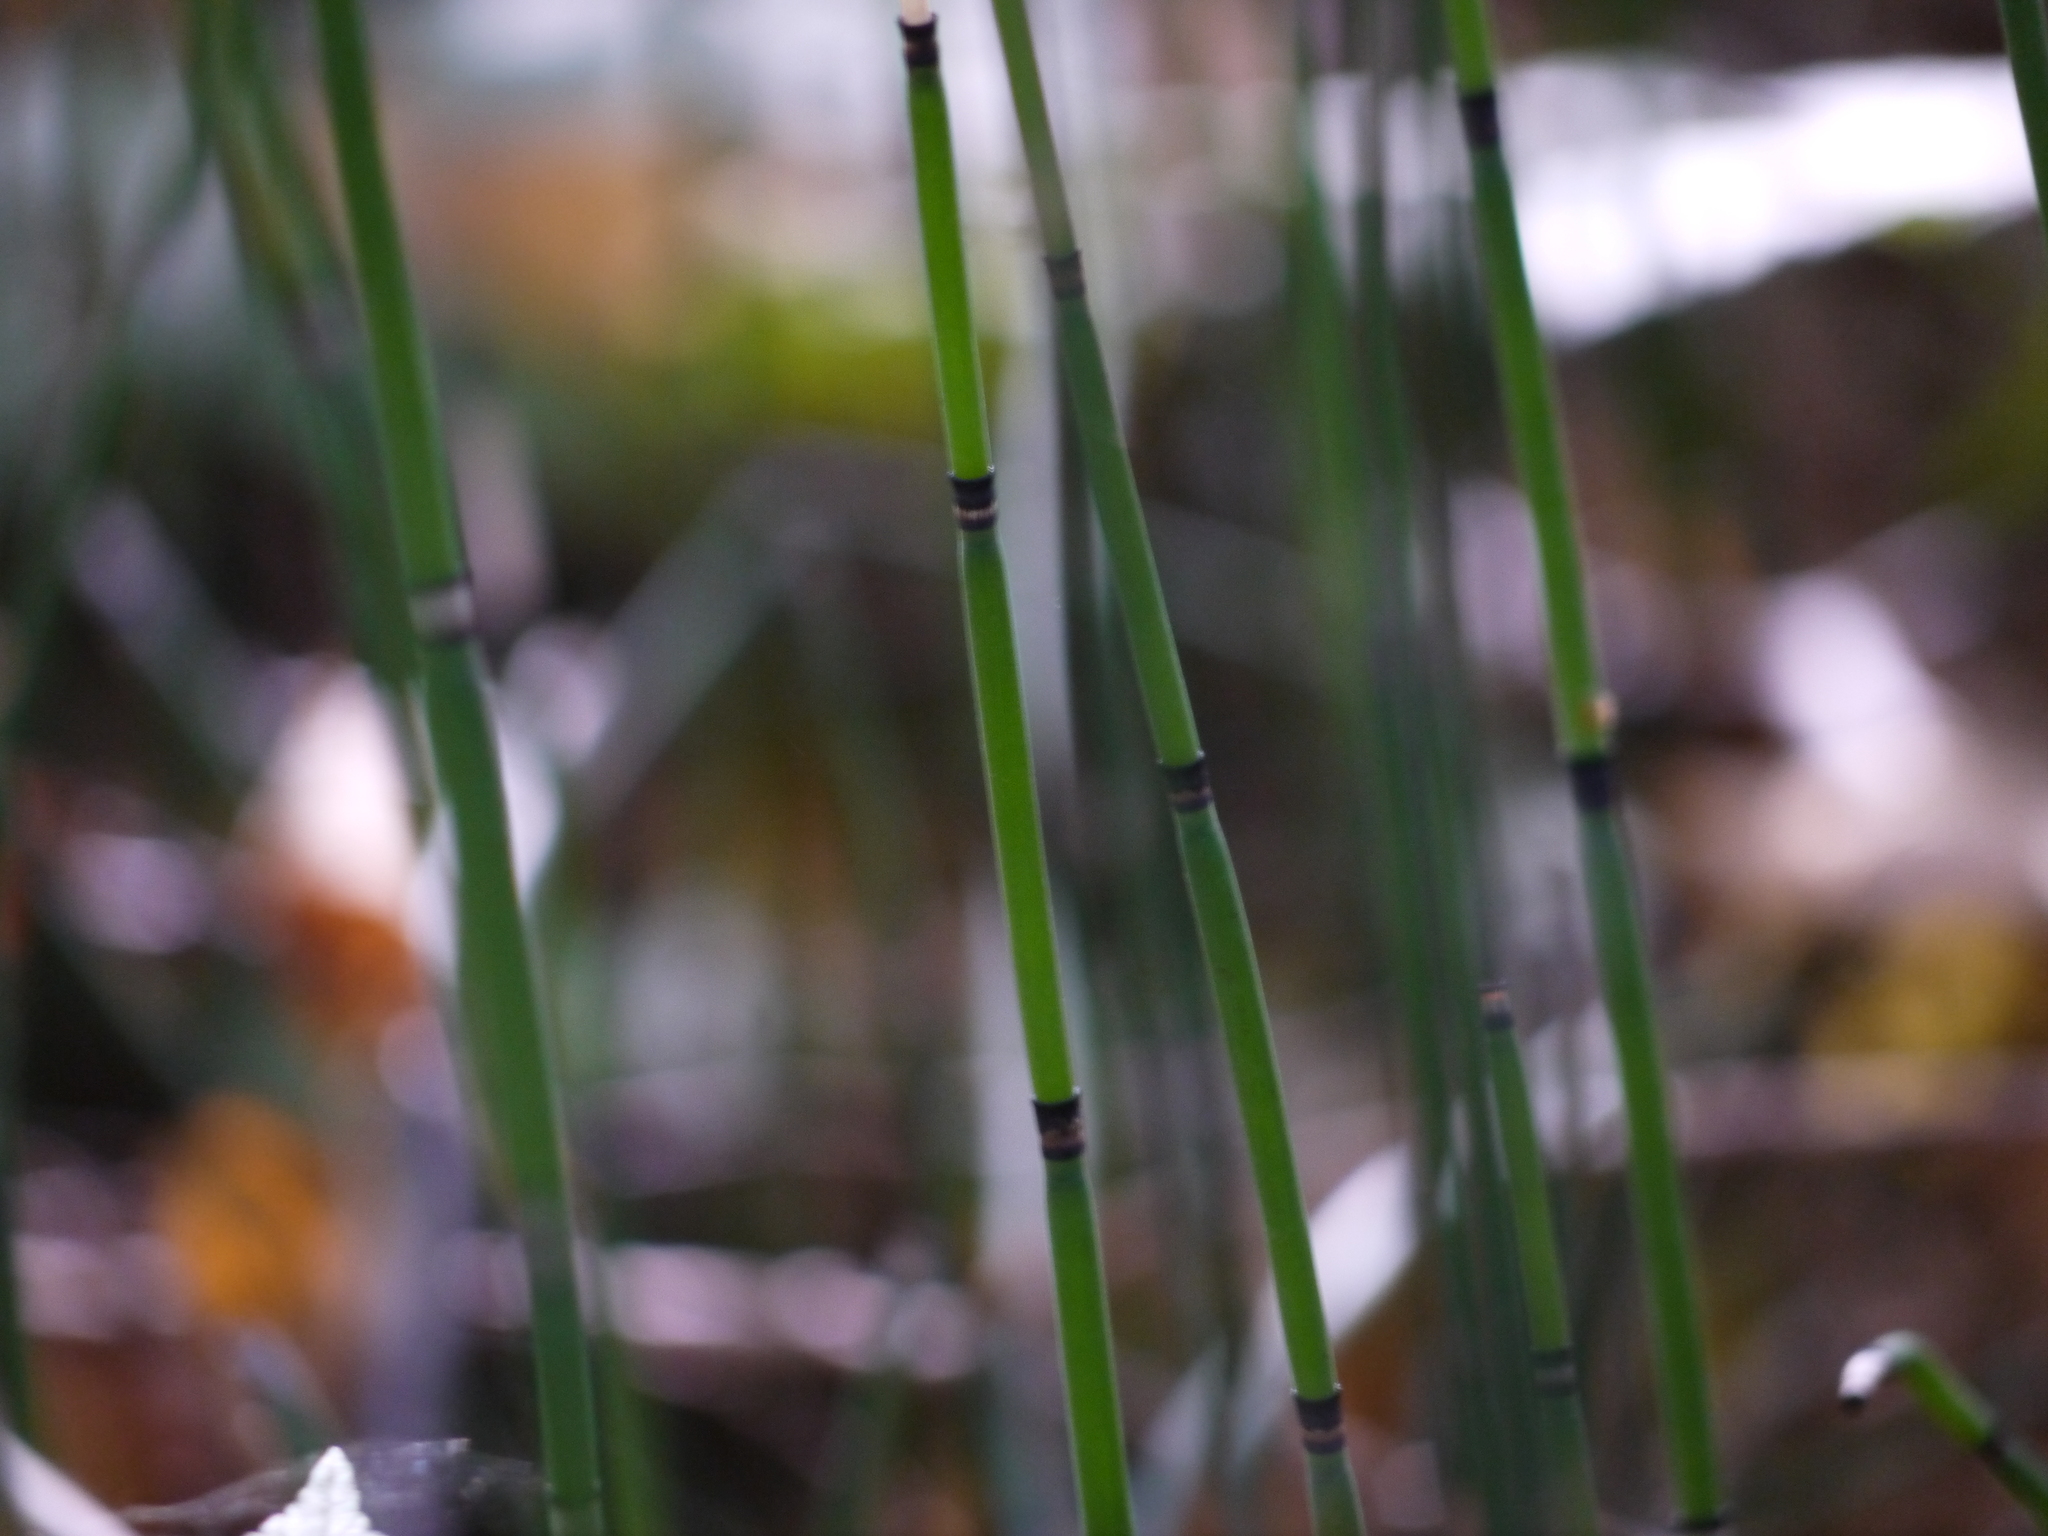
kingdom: Plantae
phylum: Tracheophyta
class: Polypodiopsida
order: Equisetales
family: Equisetaceae
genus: Equisetum
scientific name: Equisetum hyemale
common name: Rough horsetail
